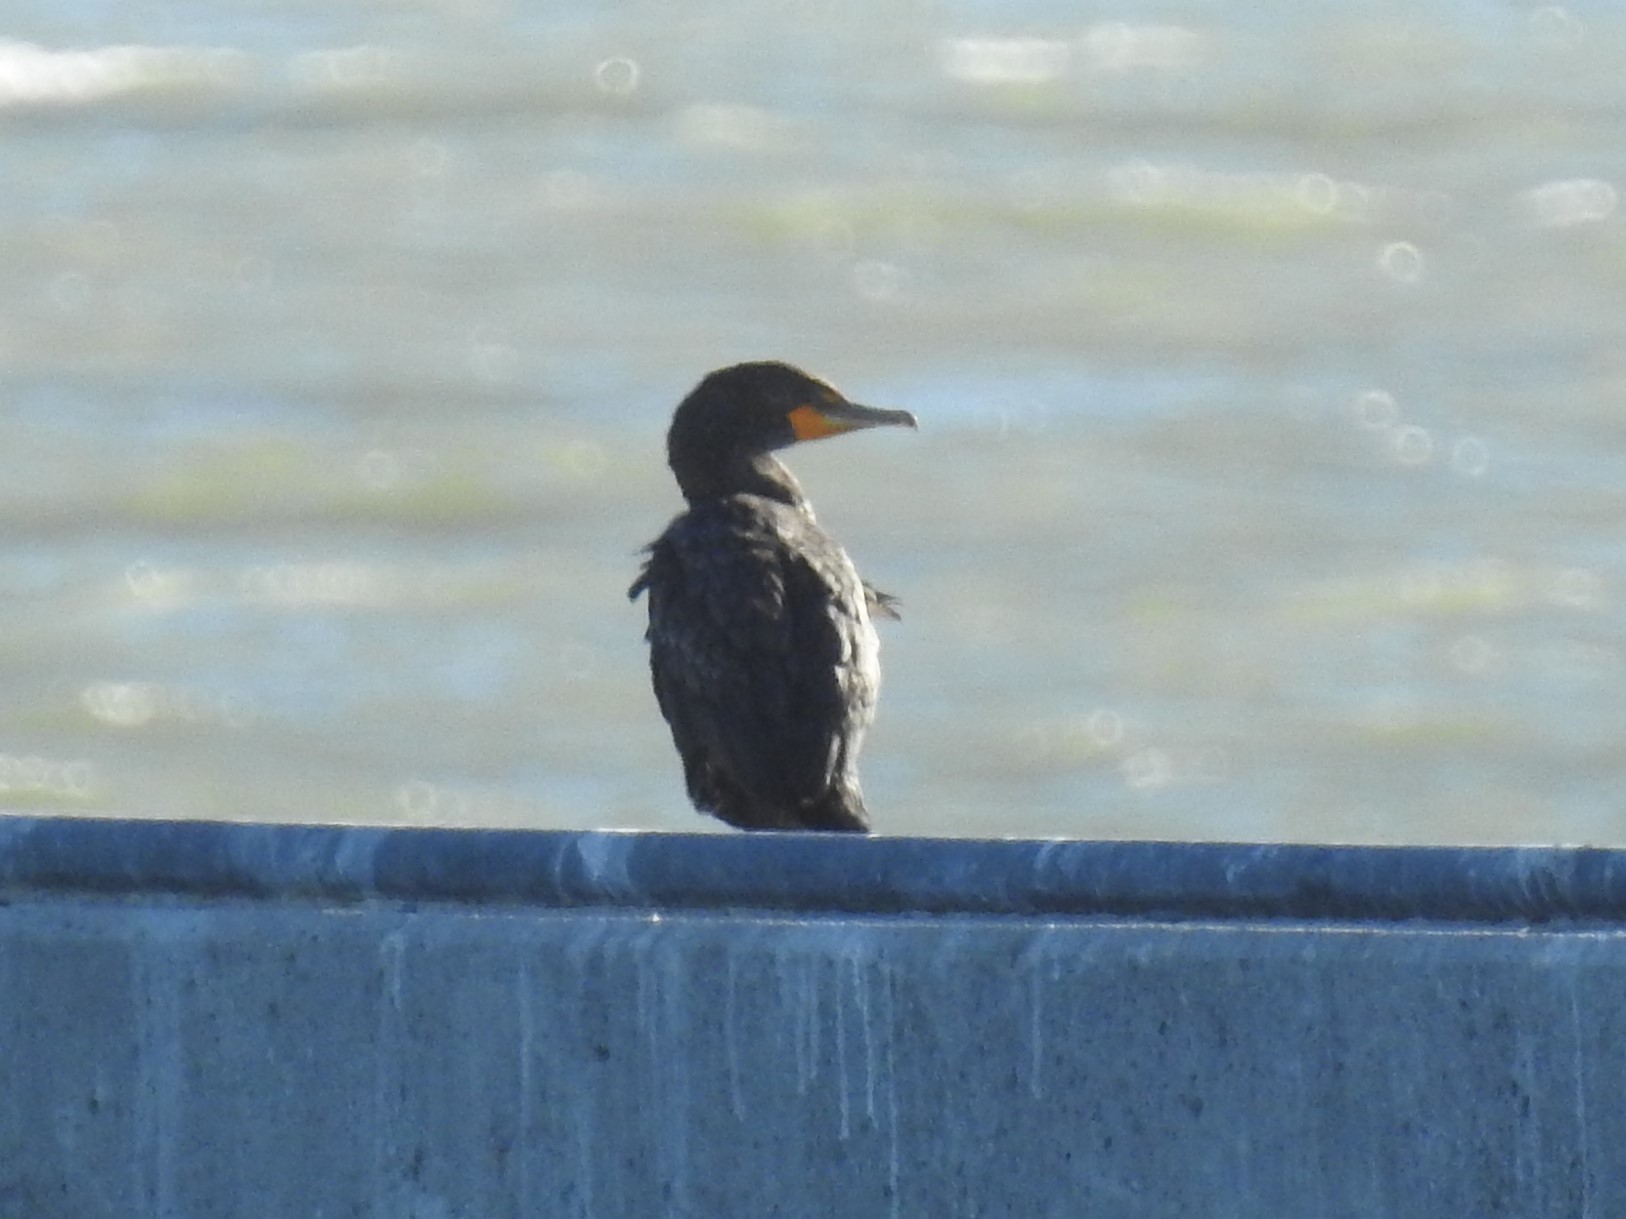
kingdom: Animalia
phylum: Chordata
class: Aves
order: Suliformes
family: Phalacrocoracidae
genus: Phalacrocorax
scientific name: Phalacrocorax auritus
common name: Double-crested cormorant
